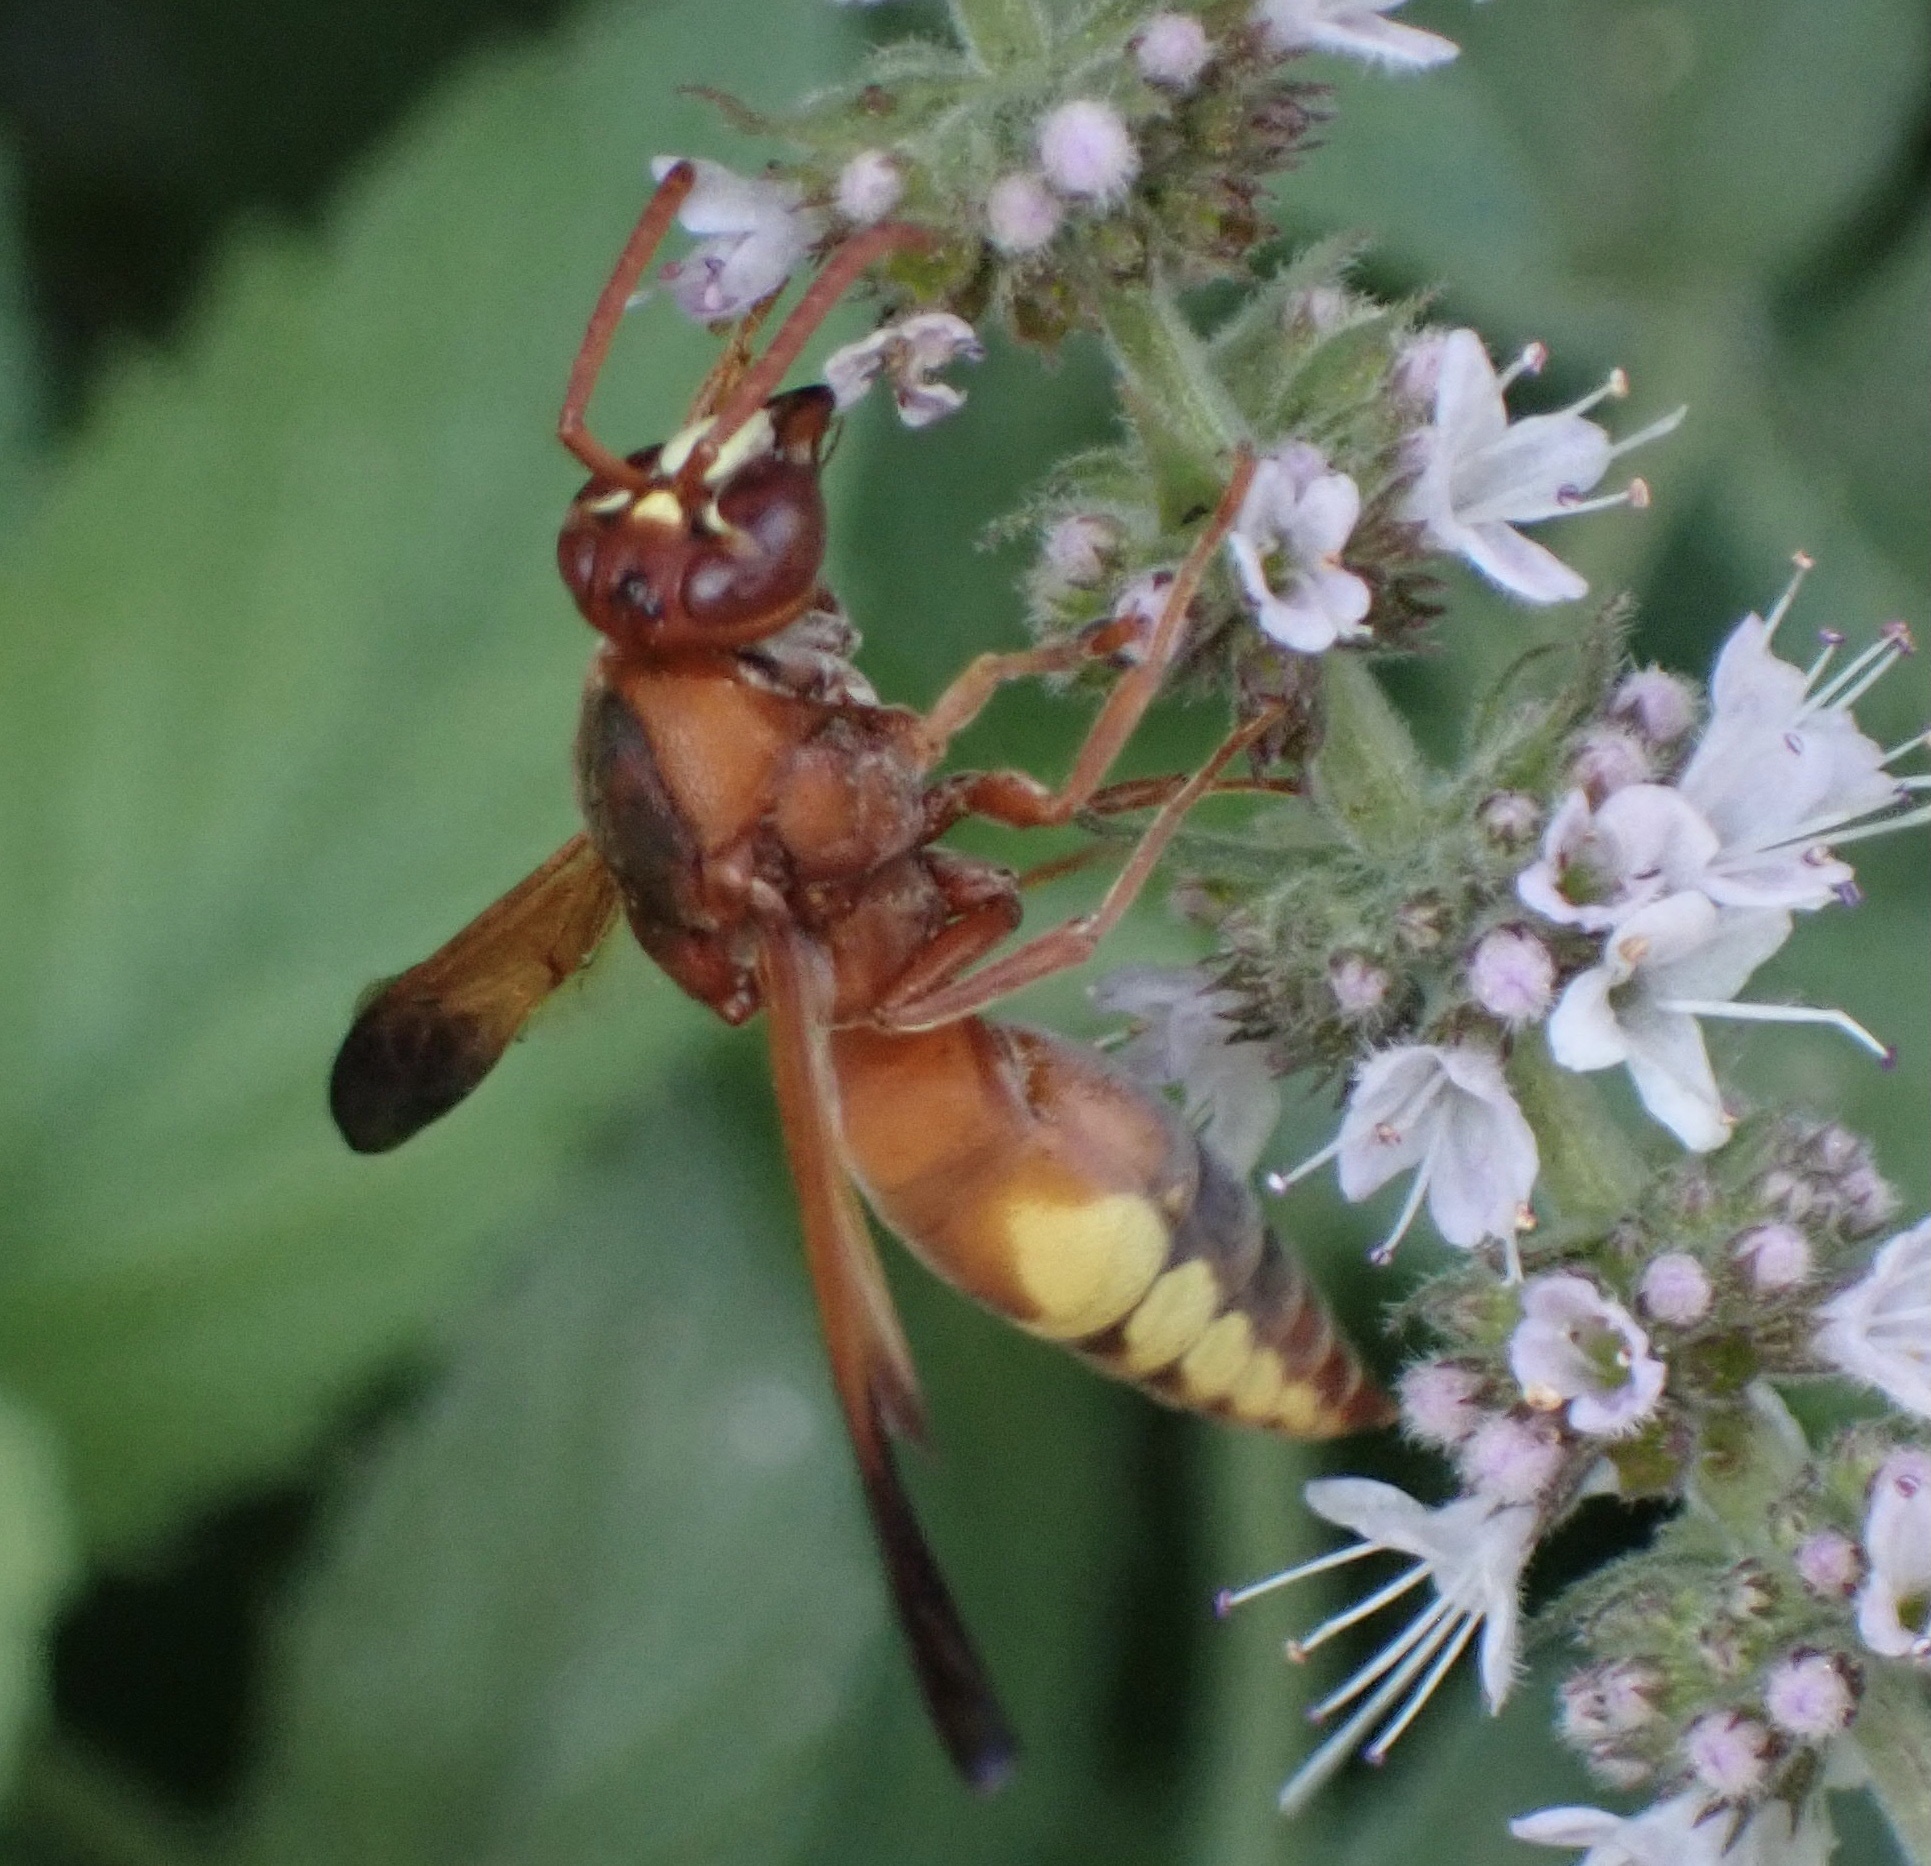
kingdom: Animalia
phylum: Arthropoda
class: Insecta
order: Hymenoptera
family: Eumenidae
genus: Rhynchium
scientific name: Rhynchium oculatum
